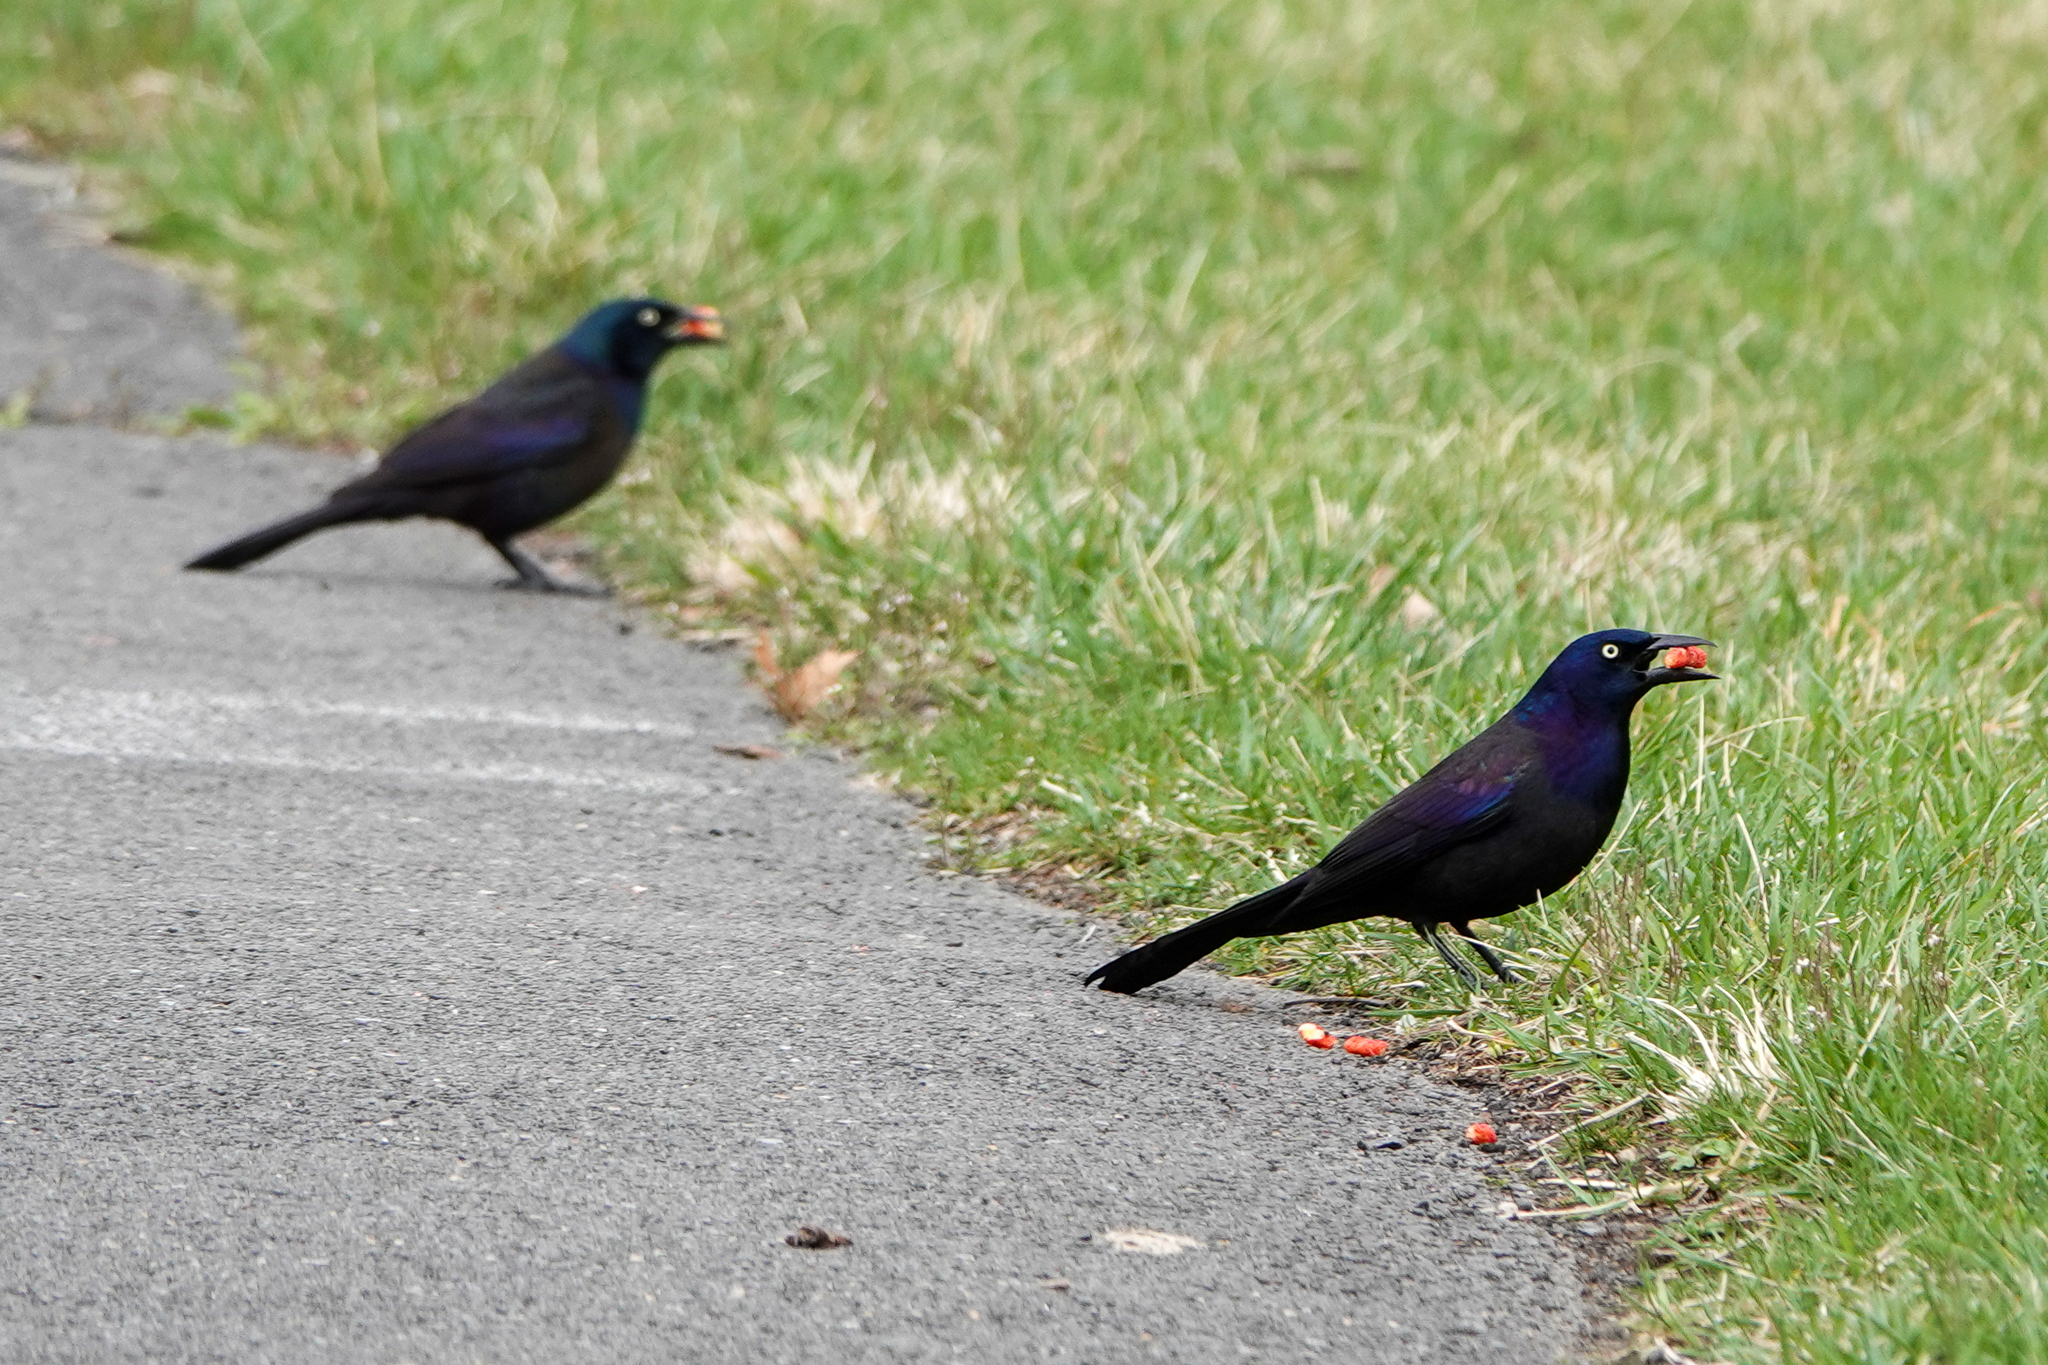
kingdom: Animalia
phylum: Chordata
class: Aves
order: Passeriformes
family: Icteridae
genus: Quiscalus
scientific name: Quiscalus quiscula
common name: Common grackle
